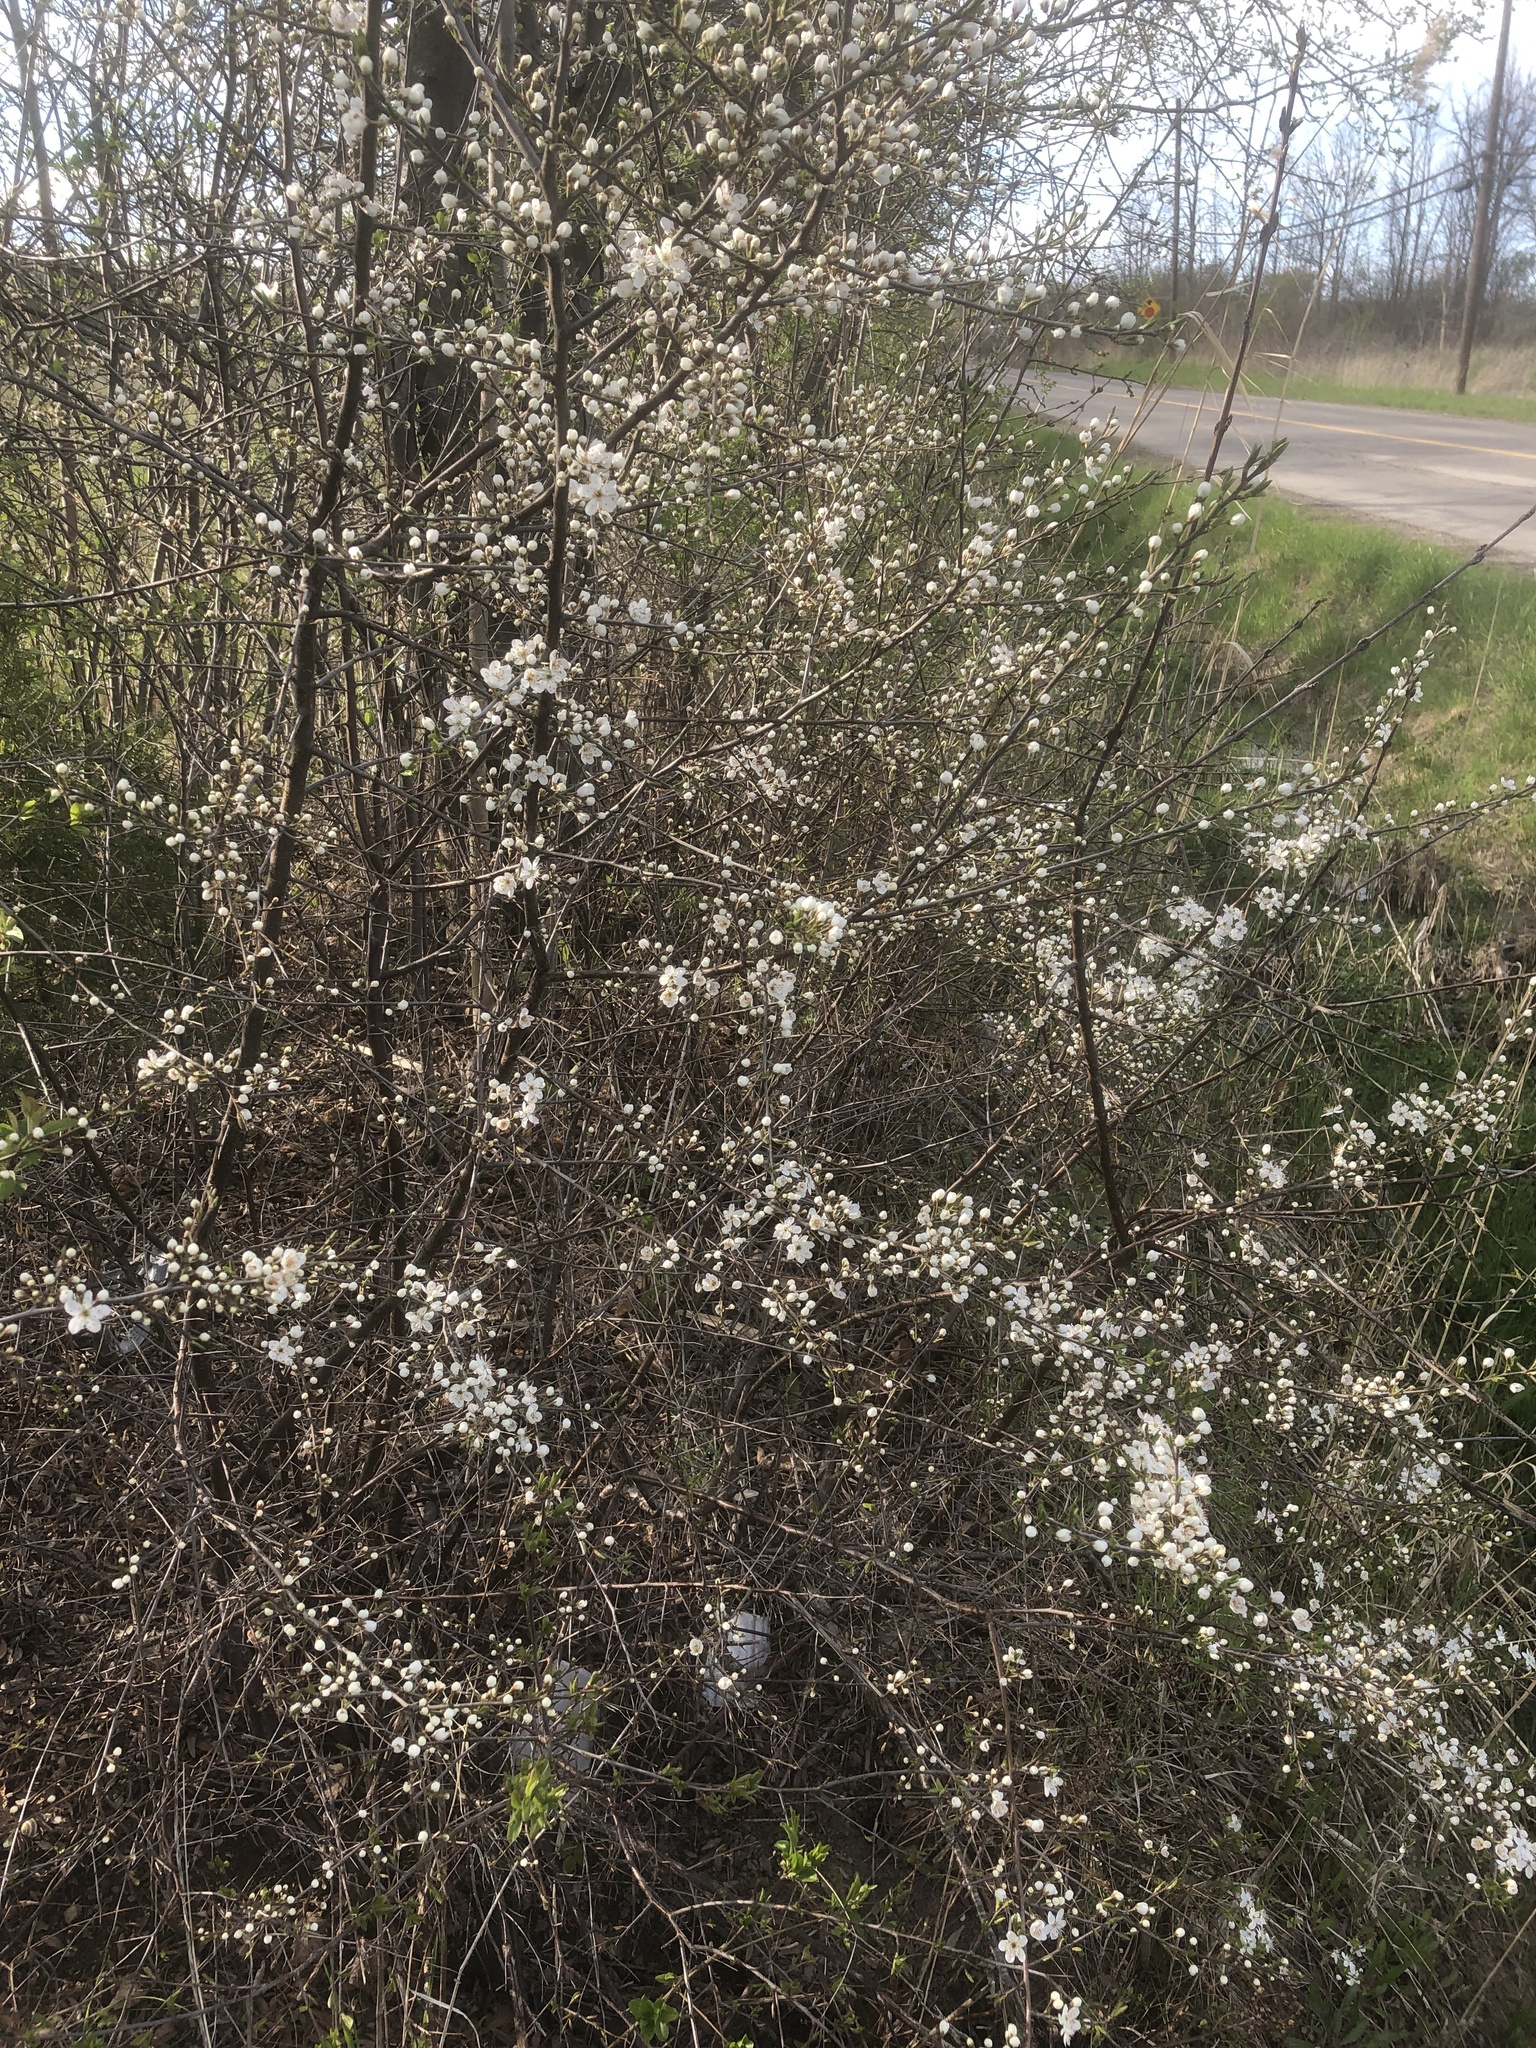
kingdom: Plantae
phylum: Tracheophyta
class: Magnoliopsida
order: Rosales
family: Rosaceae
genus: Prunus
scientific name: Prunus americana
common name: American plum
